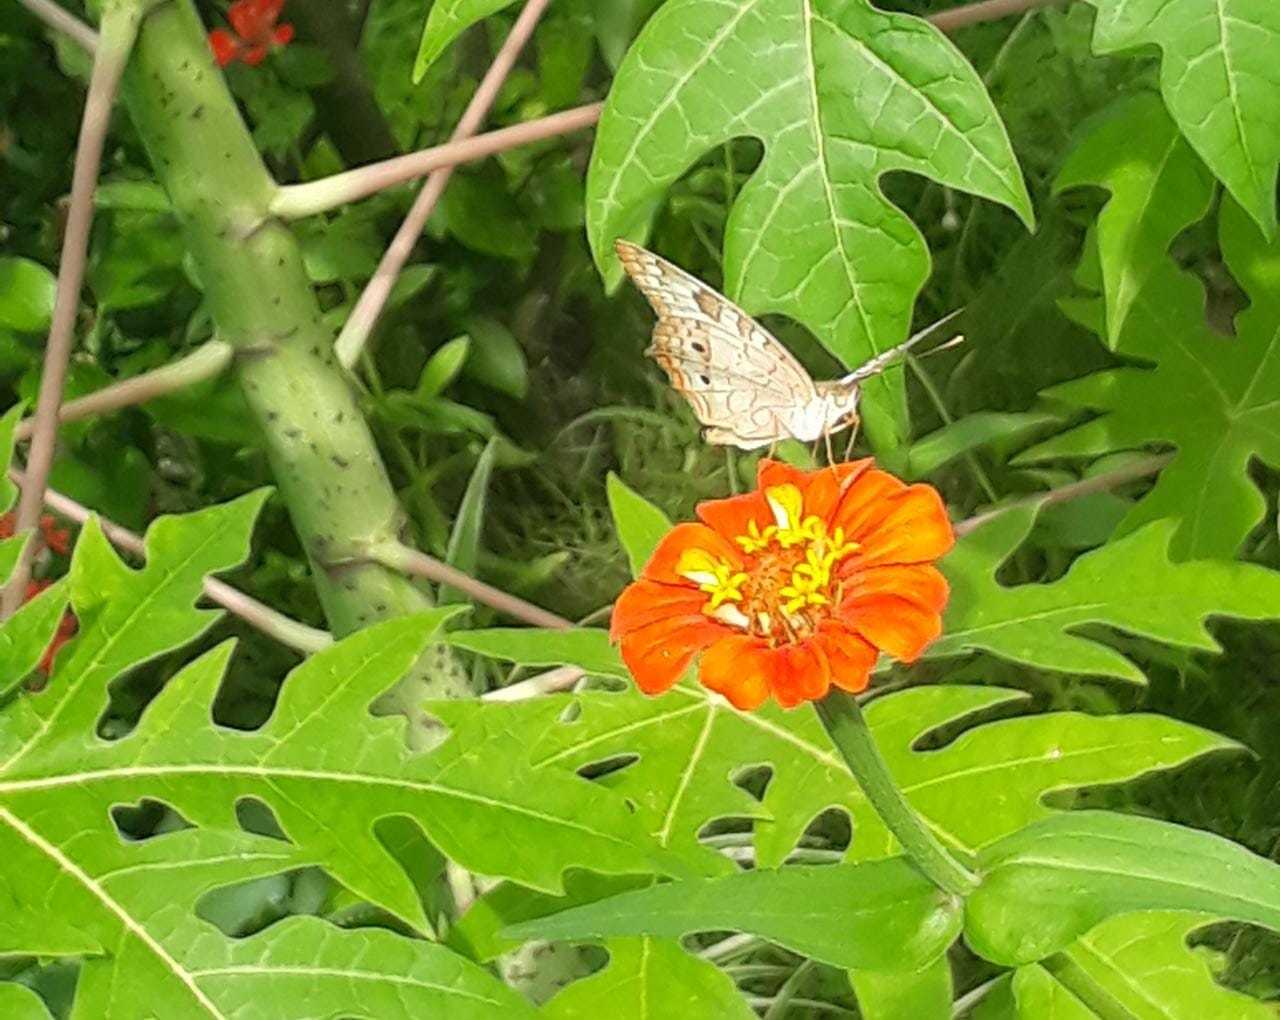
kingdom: Animalia
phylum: Arthropoda
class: Insecta
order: Lepidoptera
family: Nymphalidae
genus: Anartia
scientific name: Anartia jatrophae
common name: White peacock
